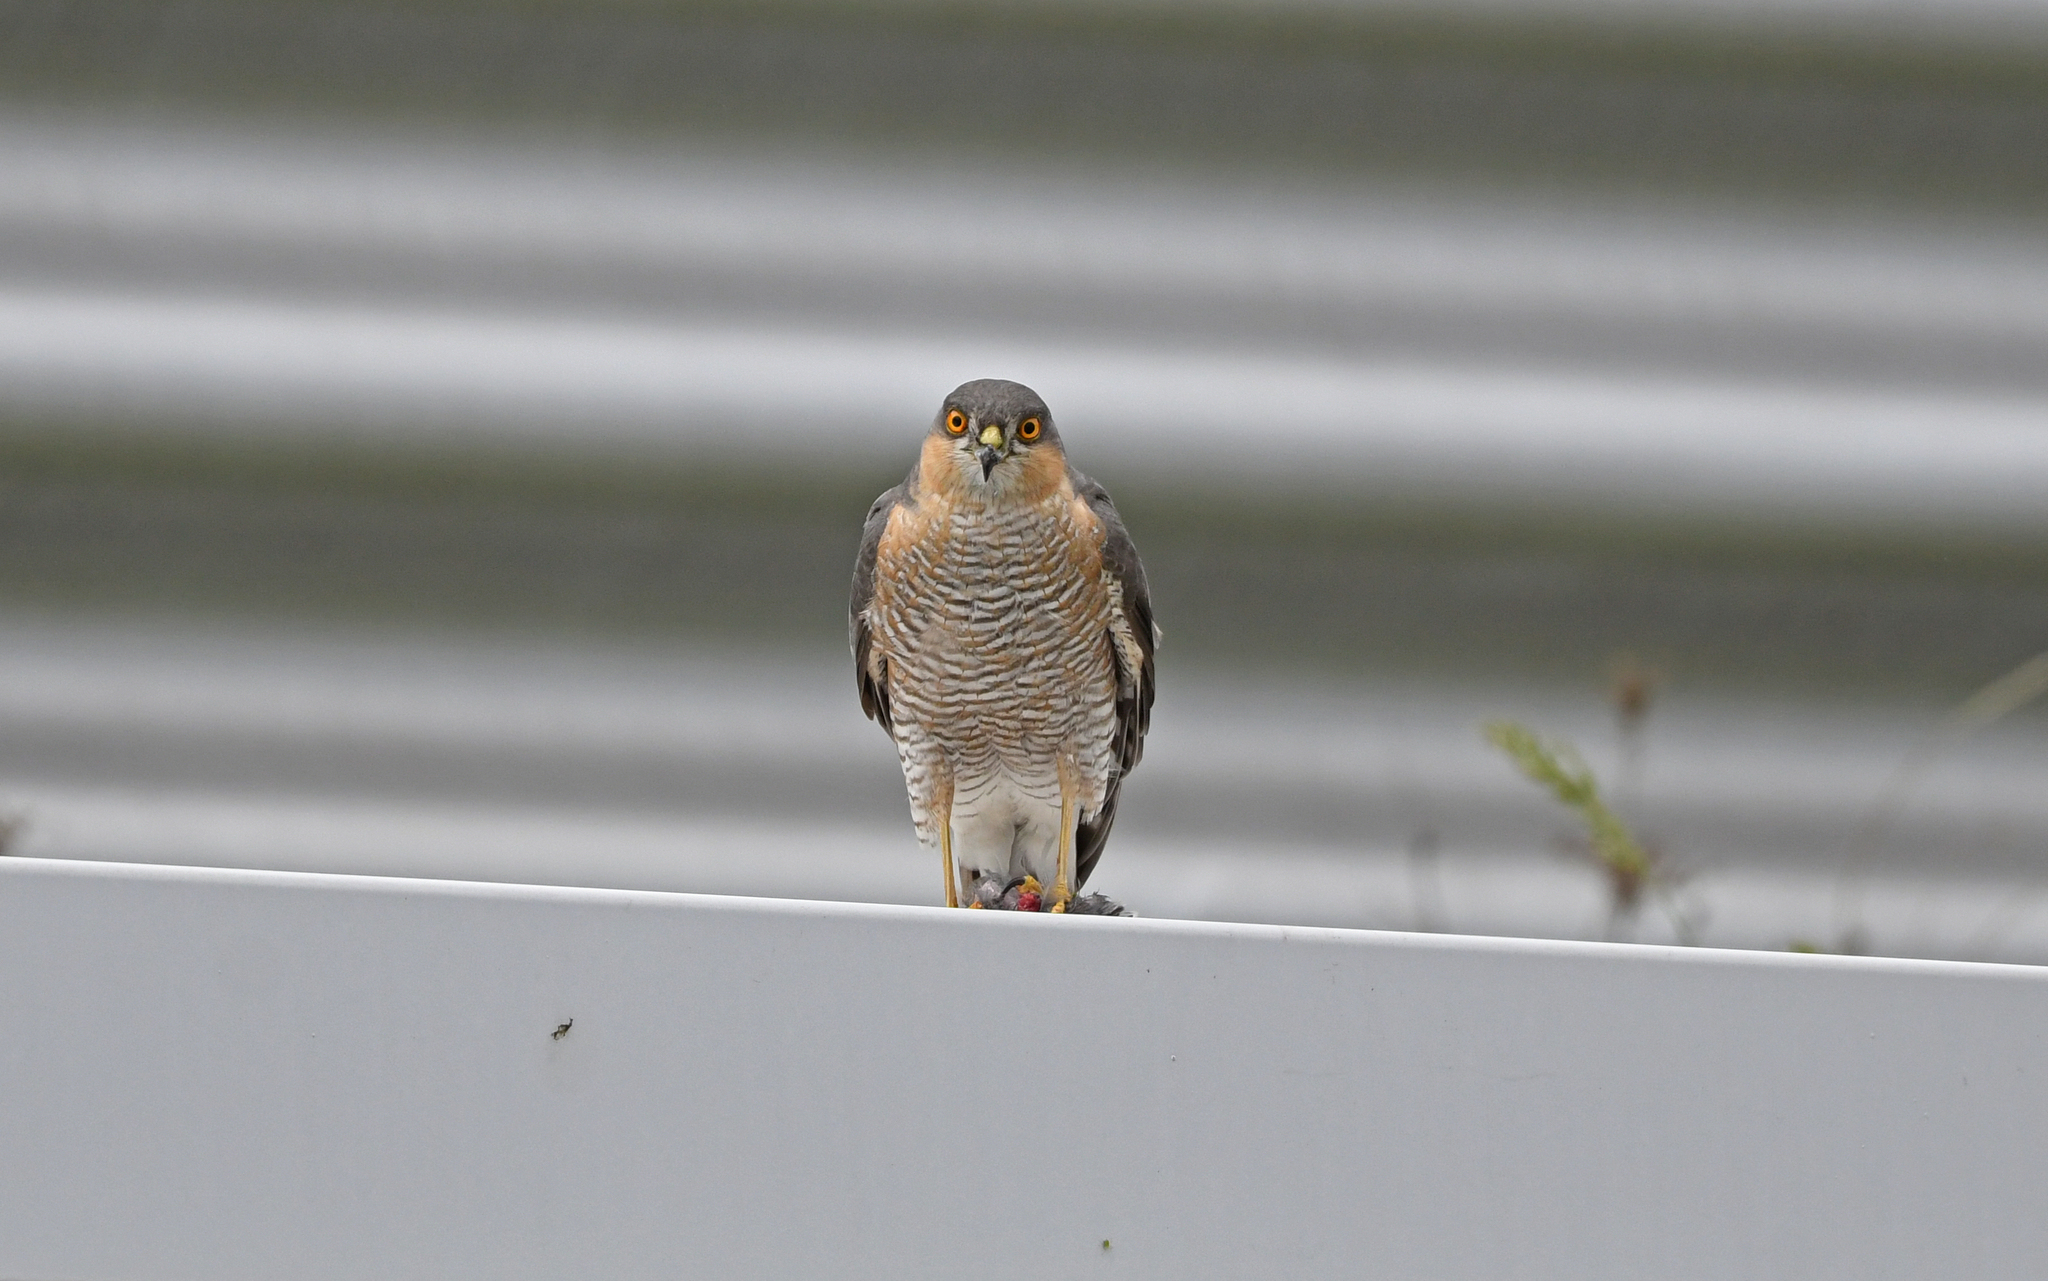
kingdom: Animalia
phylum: Chordata
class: Aves
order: Accipitriformes
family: Accipitridae
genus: Accipiter
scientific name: Accipiter nisus
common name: Eurasian sparrowhawk
